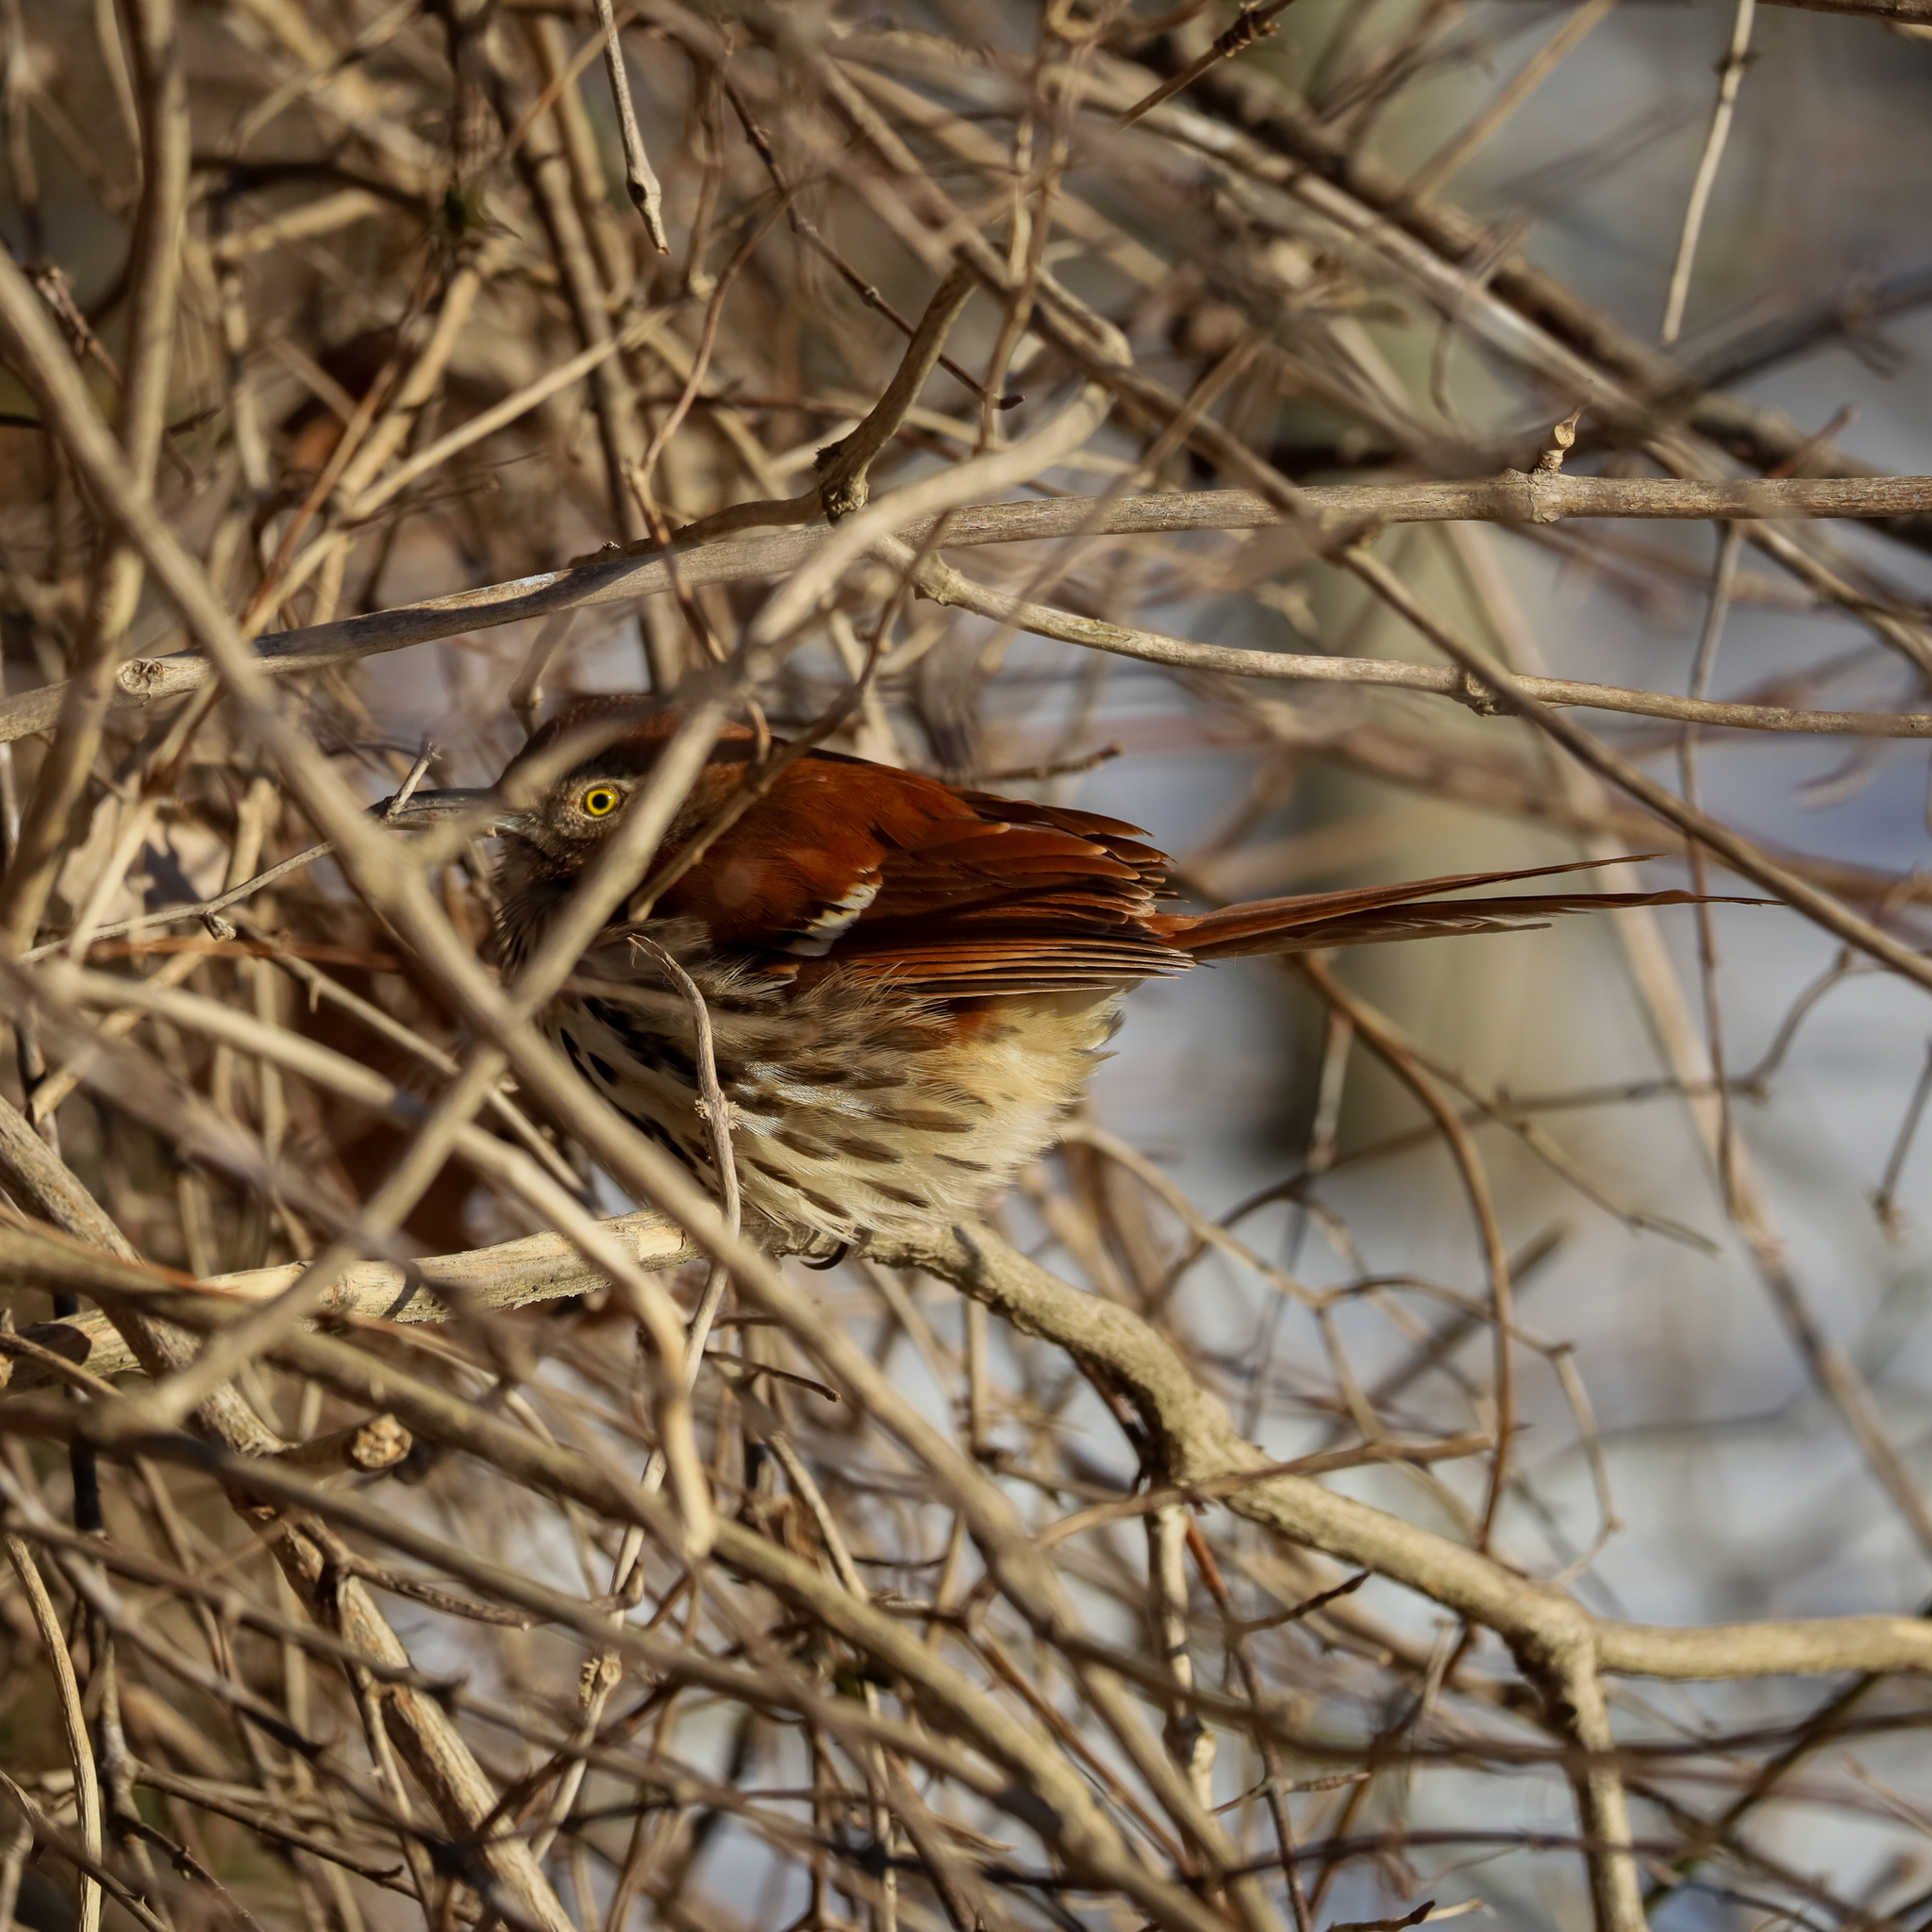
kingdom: Animalia
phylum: Chordata
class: Aves
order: Passeriformes
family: Mimidae
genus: Toxostoma
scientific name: Toxostoma rufum
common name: Brown thrasher
